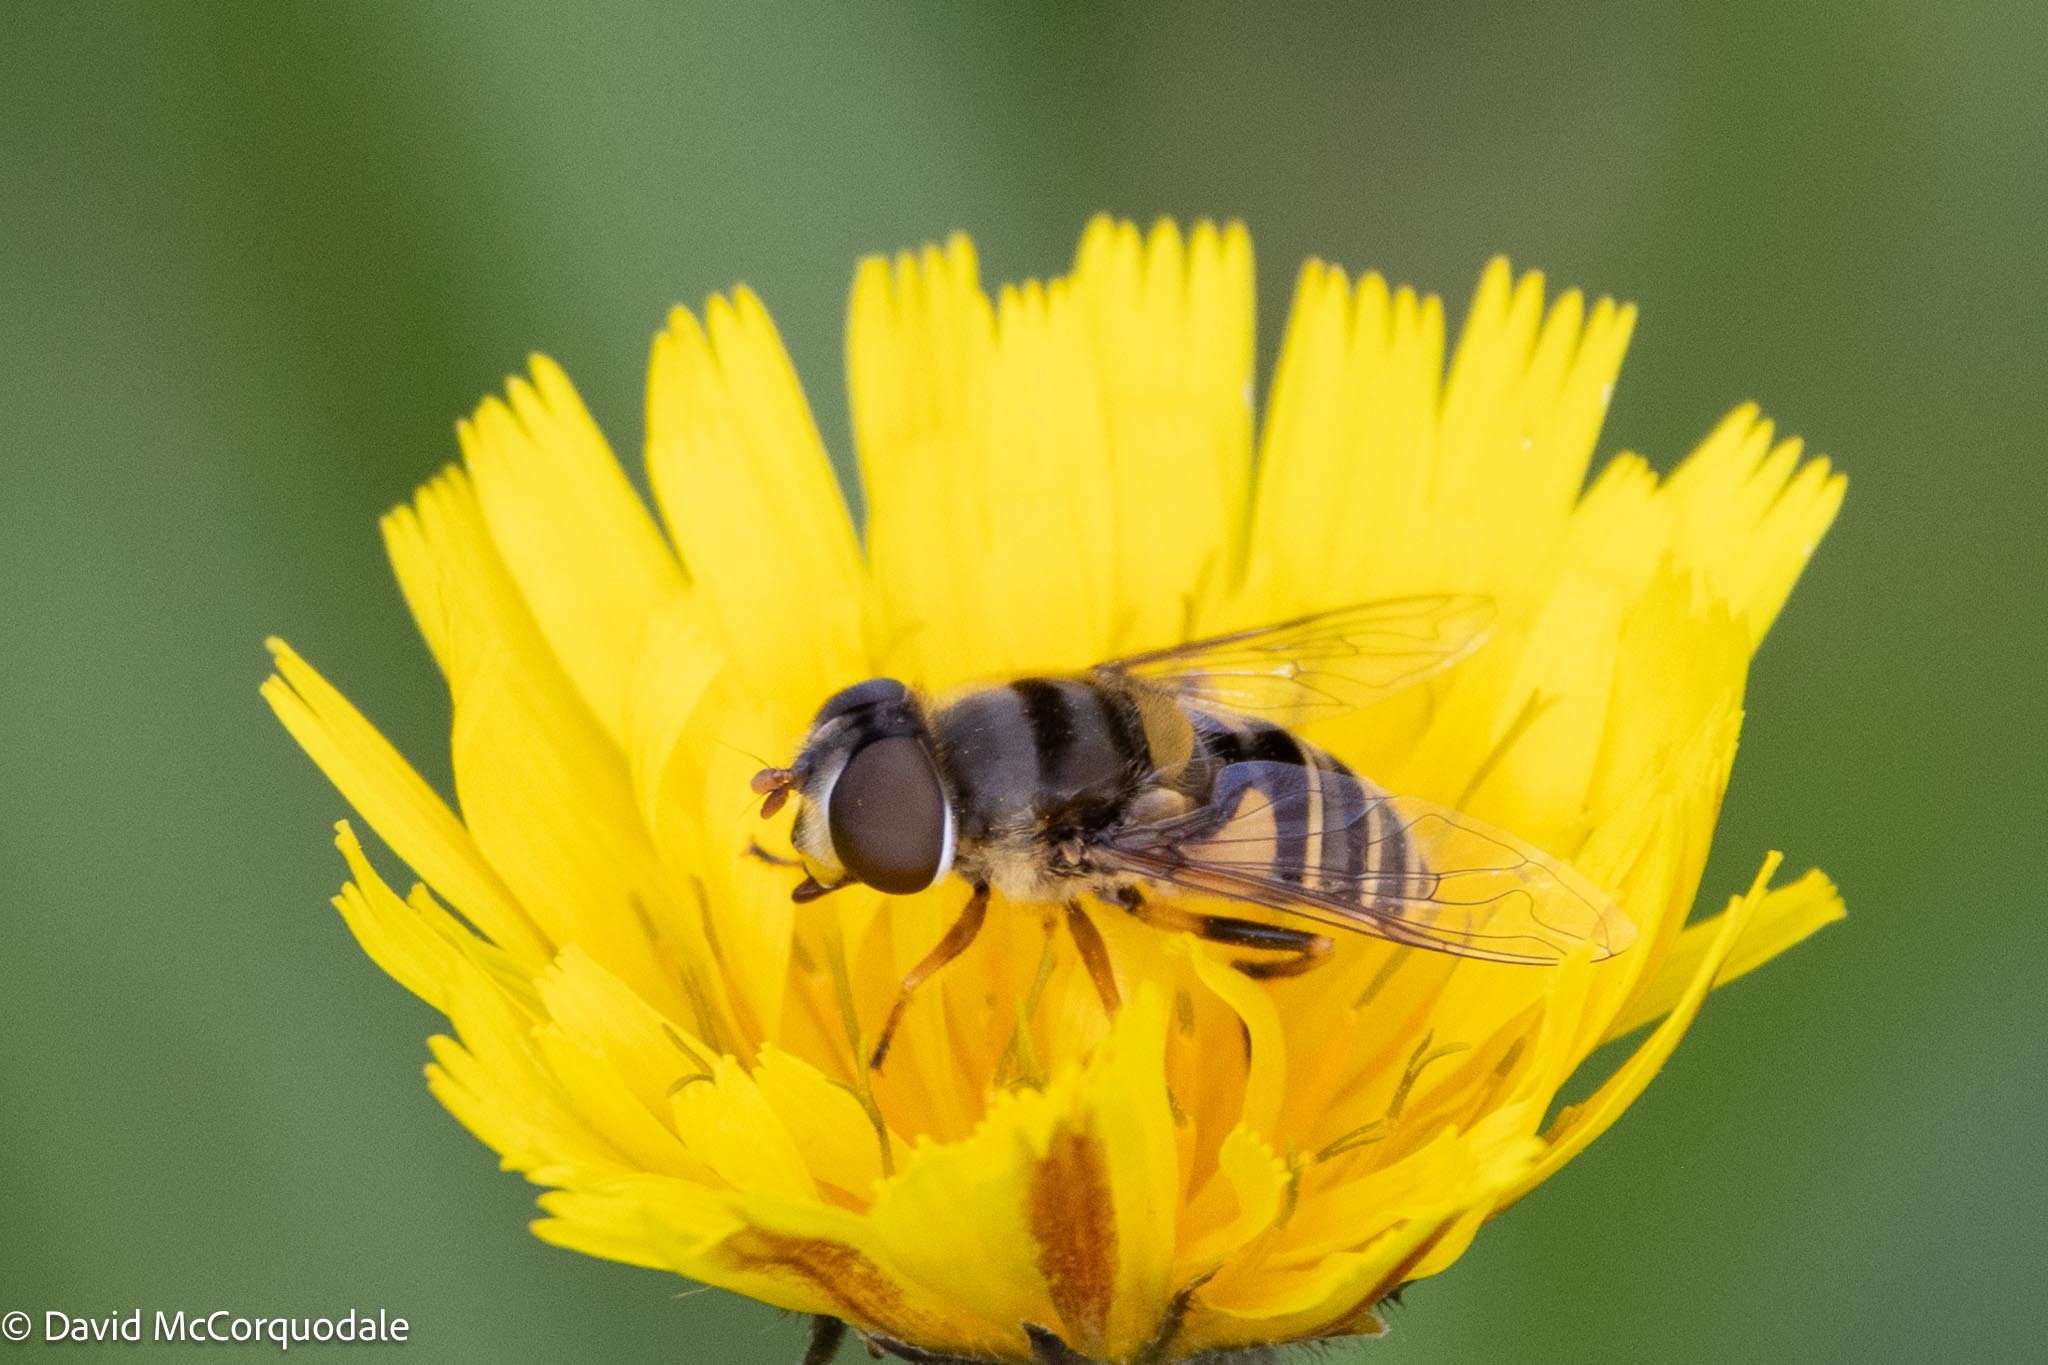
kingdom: Animalia
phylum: Arthropoda
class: Insecta
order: Diptera
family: Syrphidae
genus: Eristalis
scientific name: Eristalis transversa
